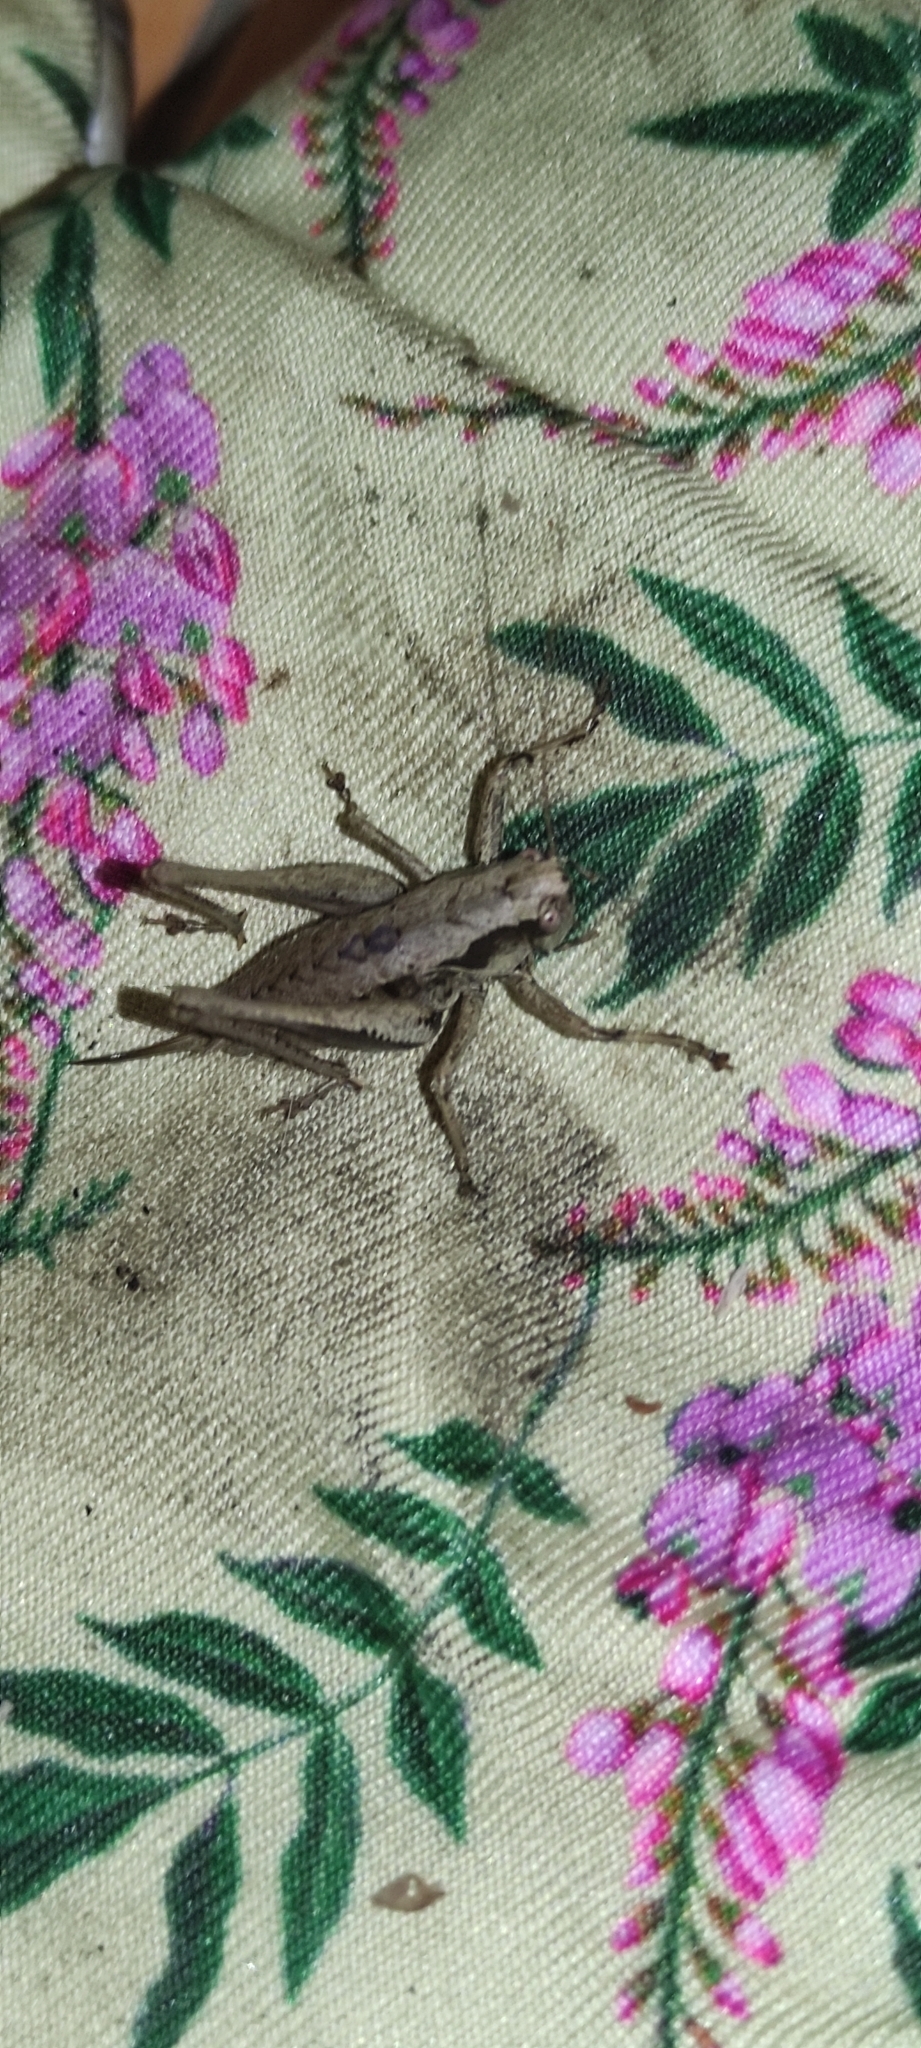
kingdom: Animalia
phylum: Arthropoda
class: Insecta
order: Orthoptera
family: Tettigoniidae
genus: Pholidoptera
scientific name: Pholidoptera griseoaptera
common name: Dark bush-cricket
